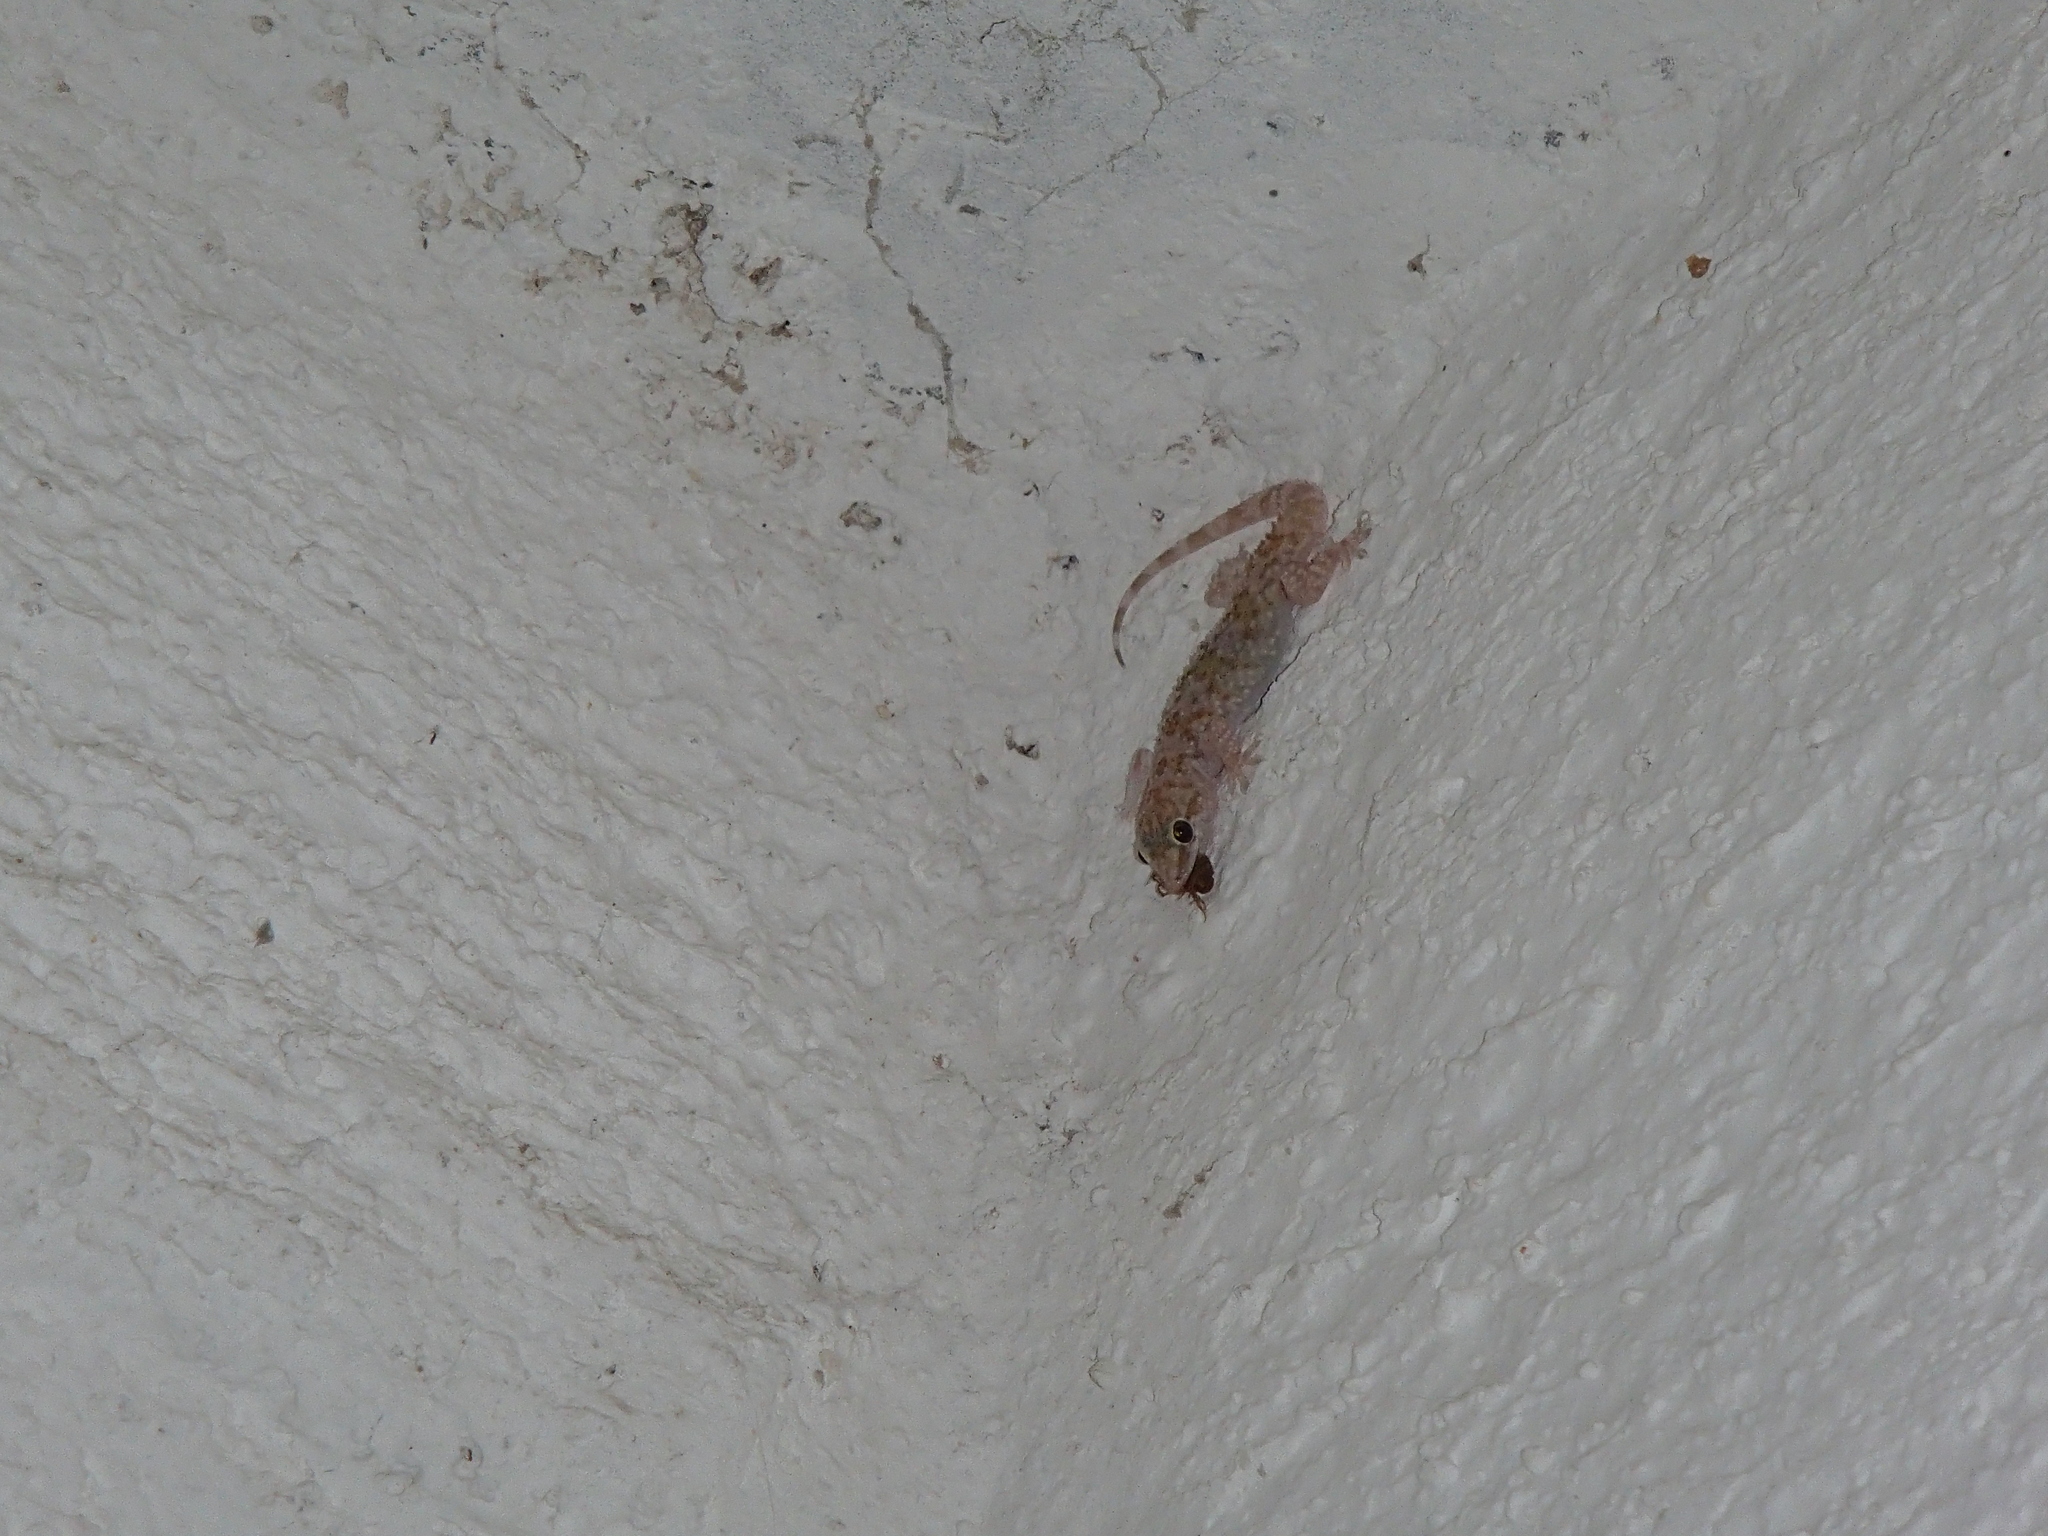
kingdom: Animalia
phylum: Chordata
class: Squamata
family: Gekkonidae
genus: Hemidactylus
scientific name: Hemidactylus turcicus
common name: Turkish gecko
